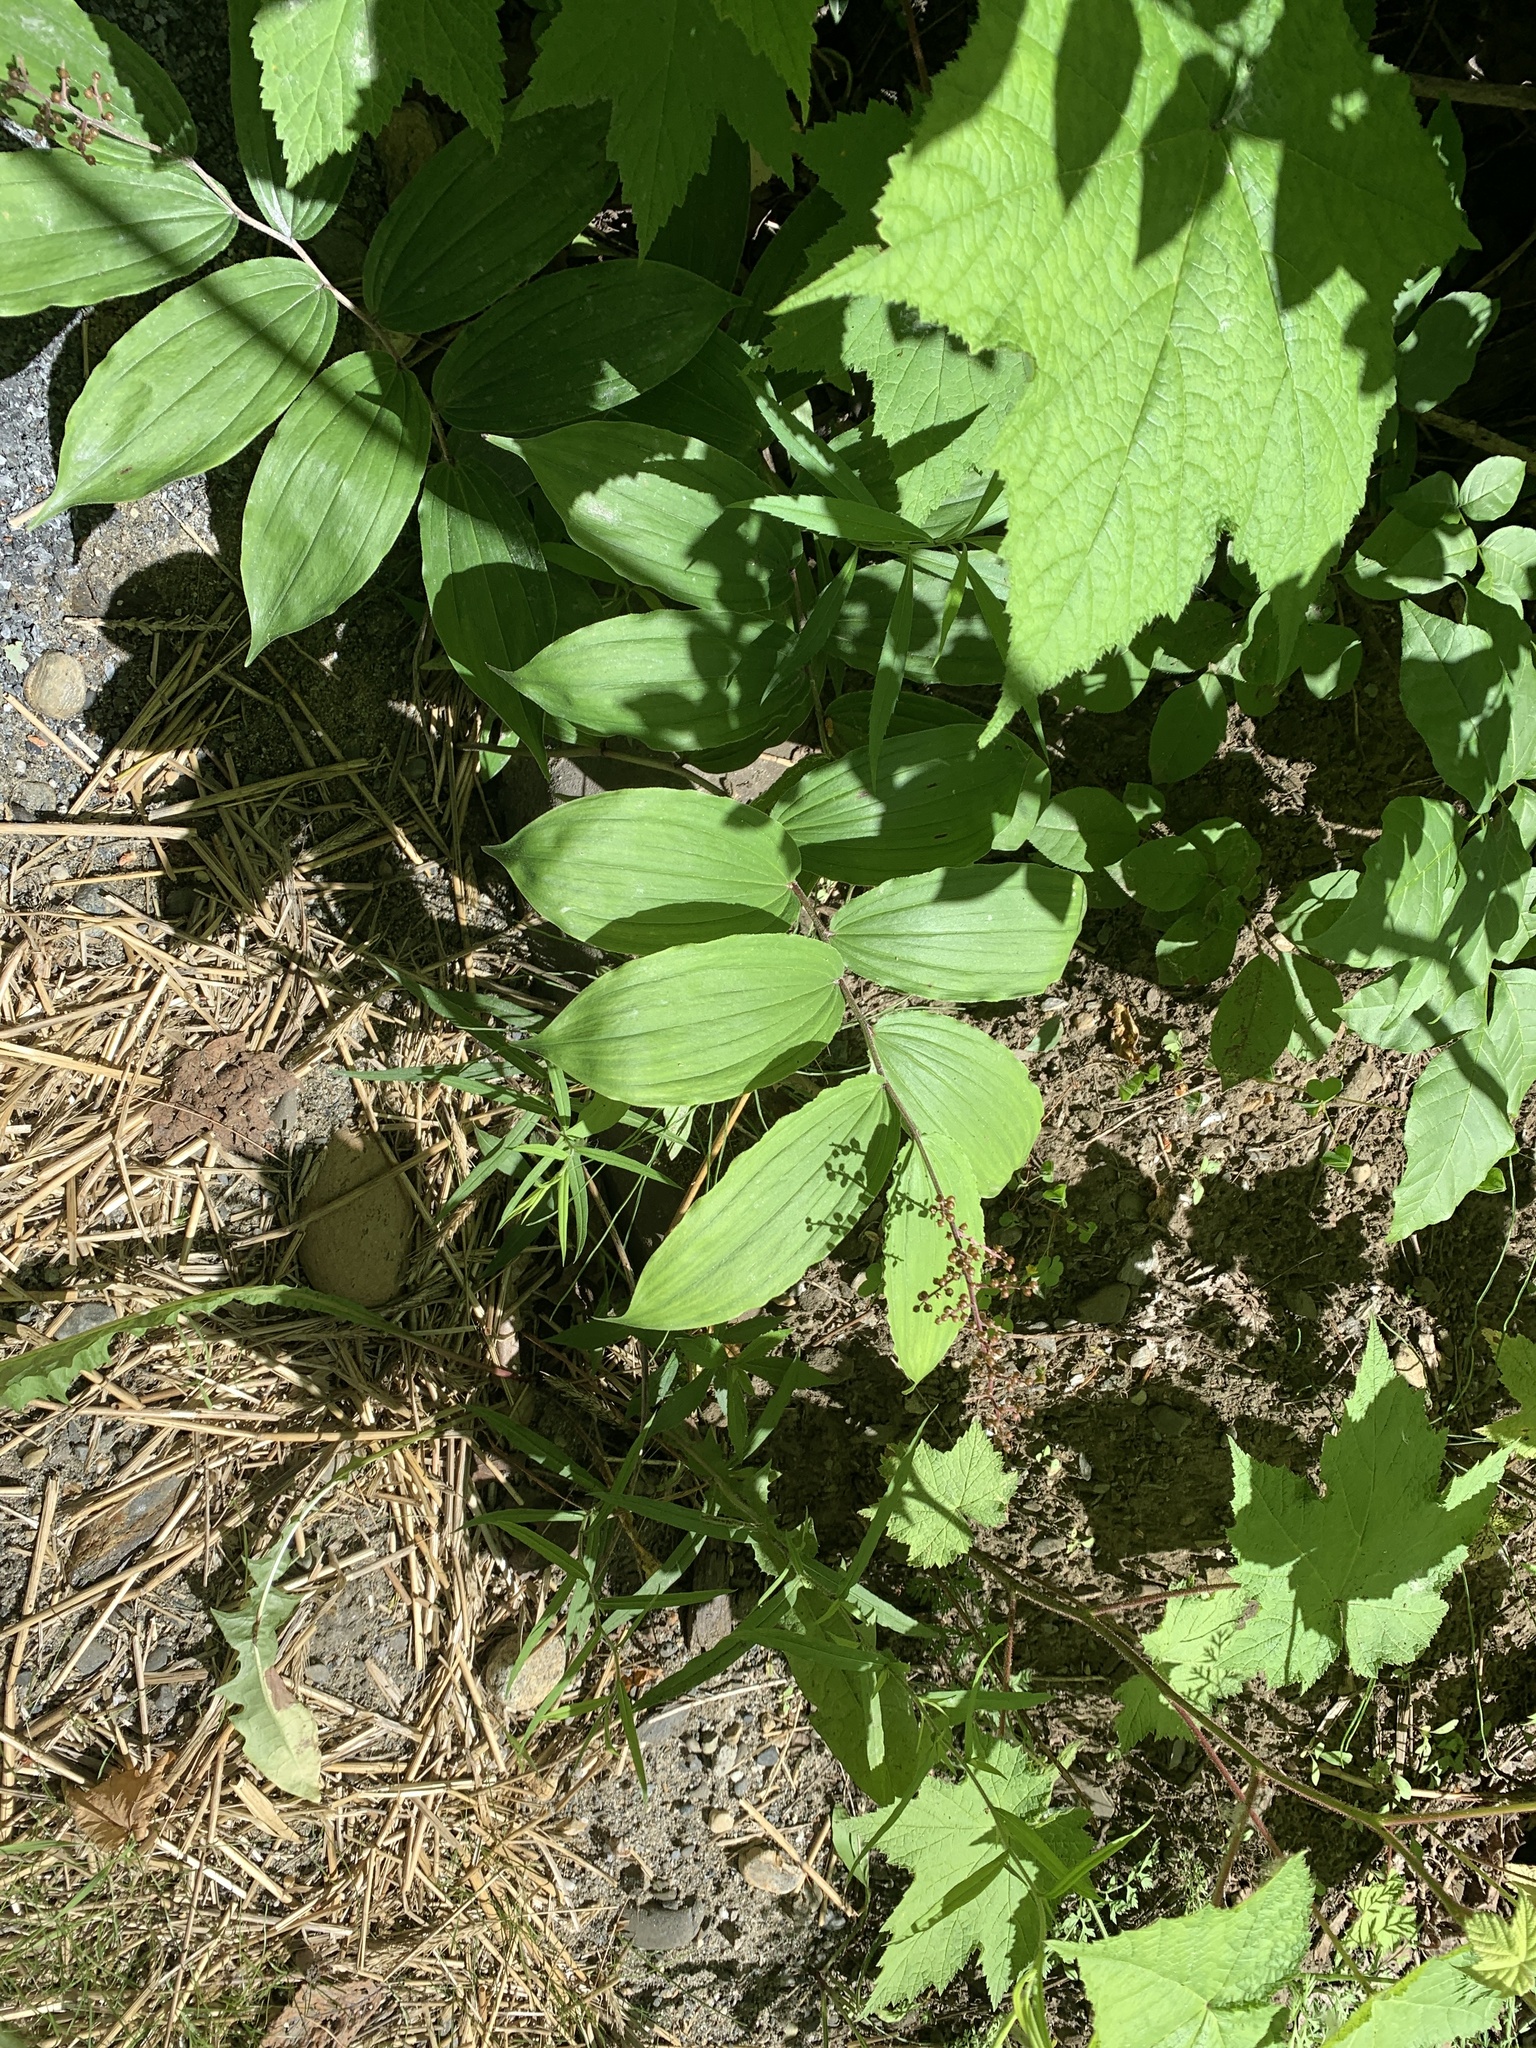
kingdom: Plantae
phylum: Tracheophyta
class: Liliopsida
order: Asparagales
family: Asparagaceae
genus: Maianthemum
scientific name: Maianthemum racemosum
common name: False spikenard
